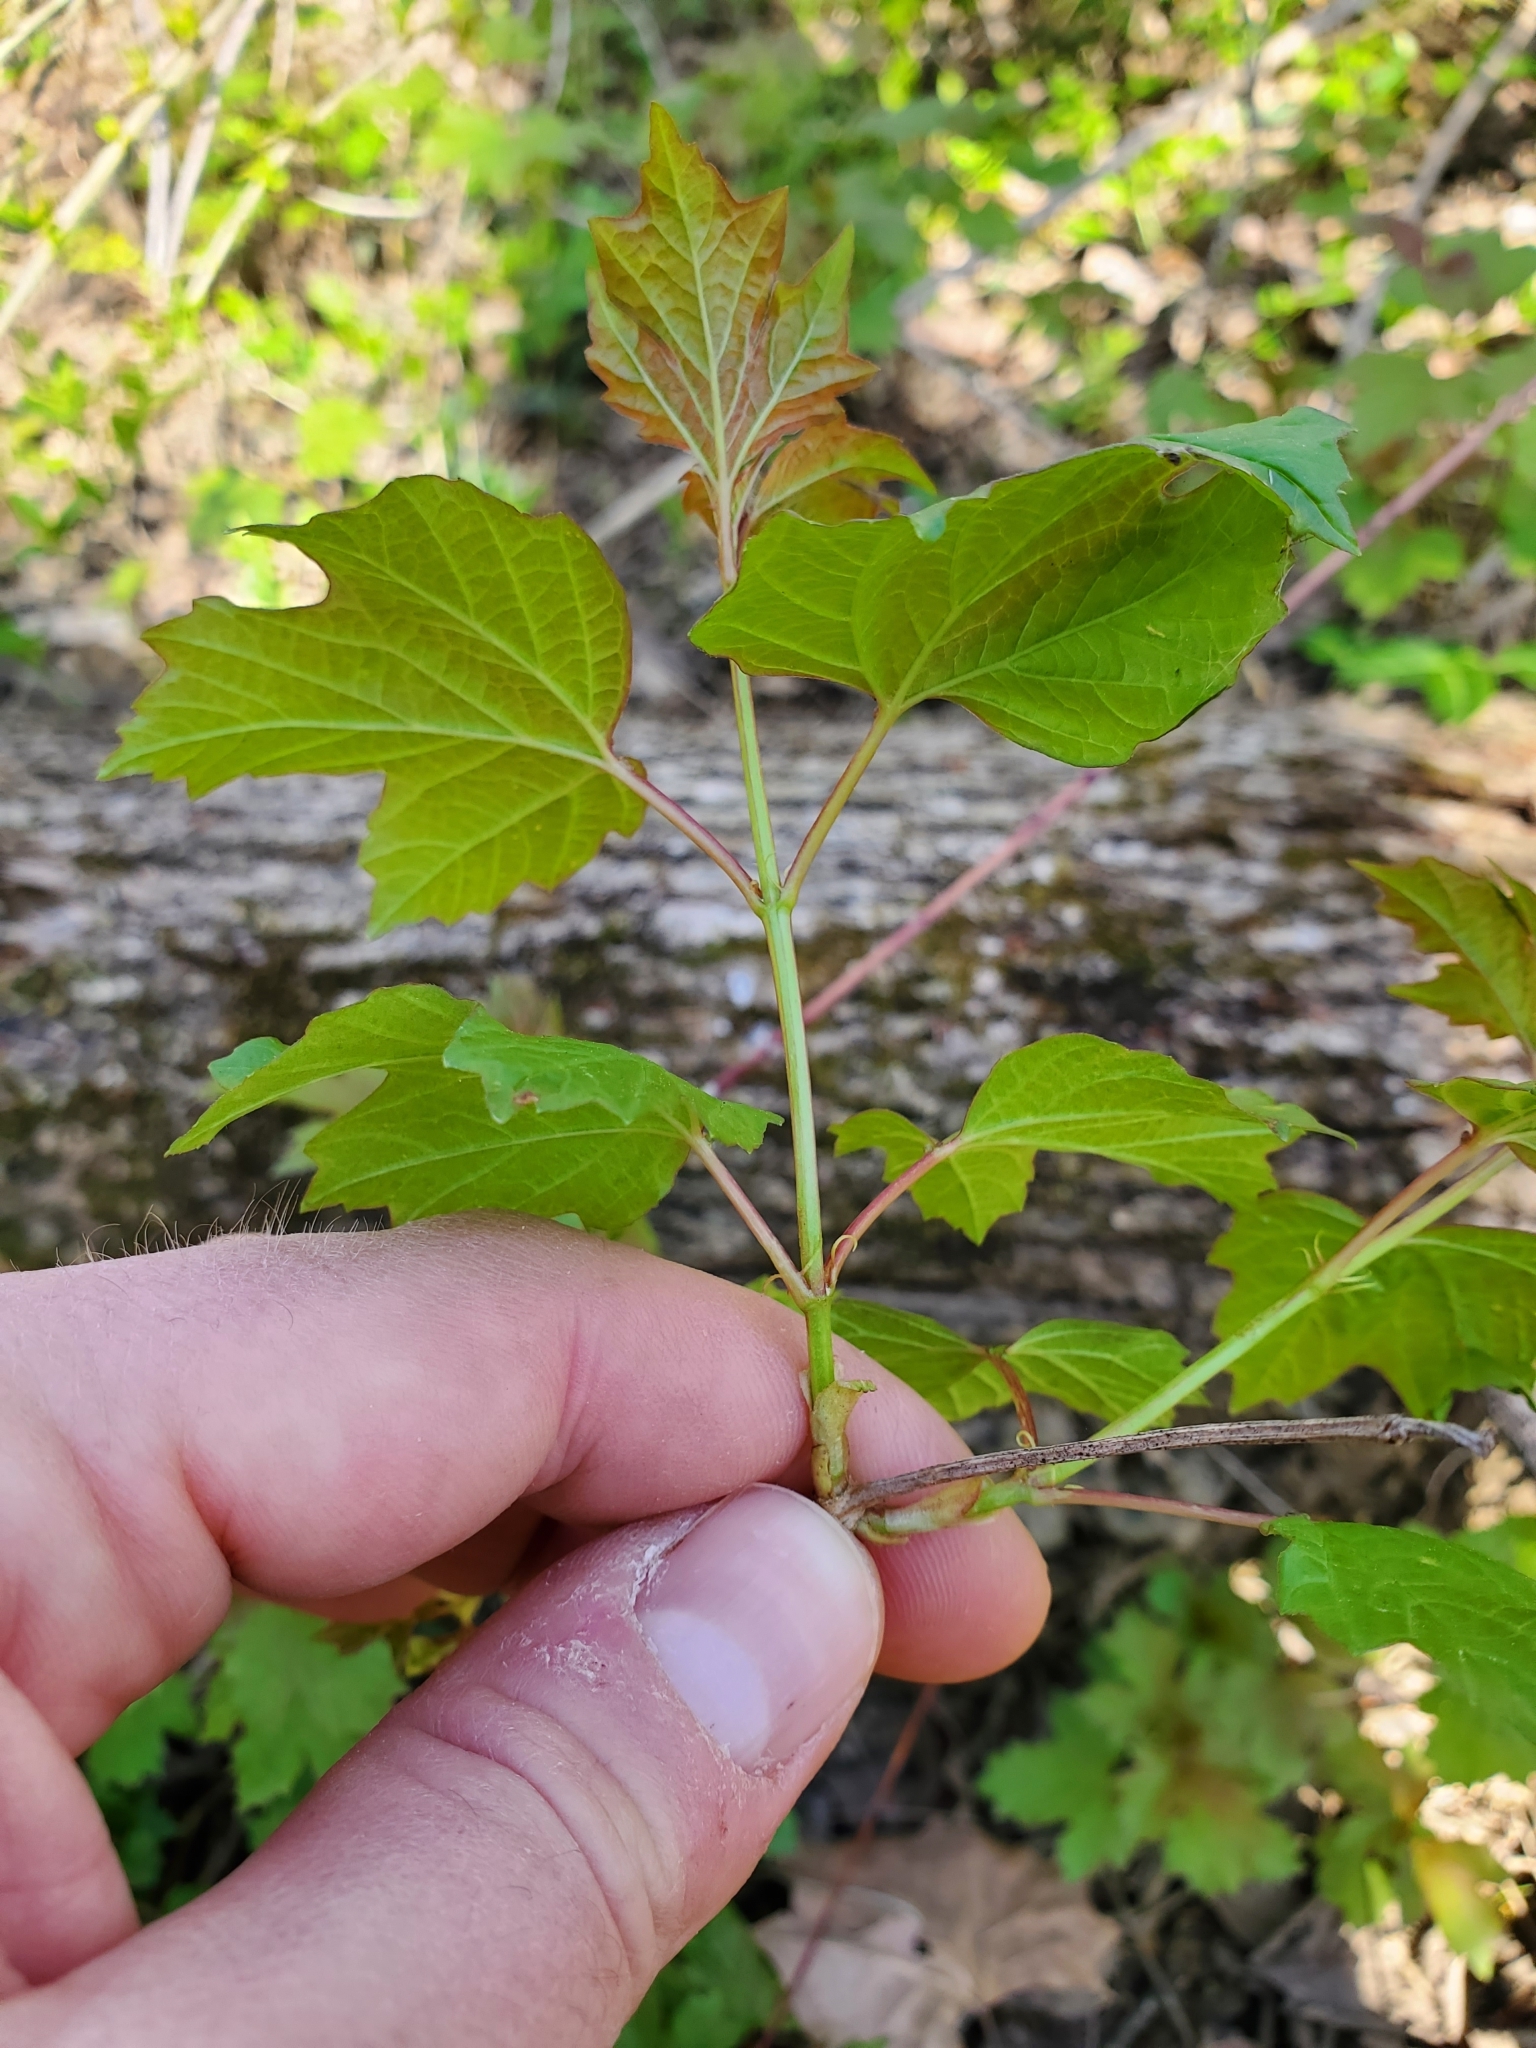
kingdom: Plantae
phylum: Tracheophyta
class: Magnoliopsida
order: Dipsacales
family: Viburnaceae
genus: Viburnum
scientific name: Viburnum opulus
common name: Guelder-rose
